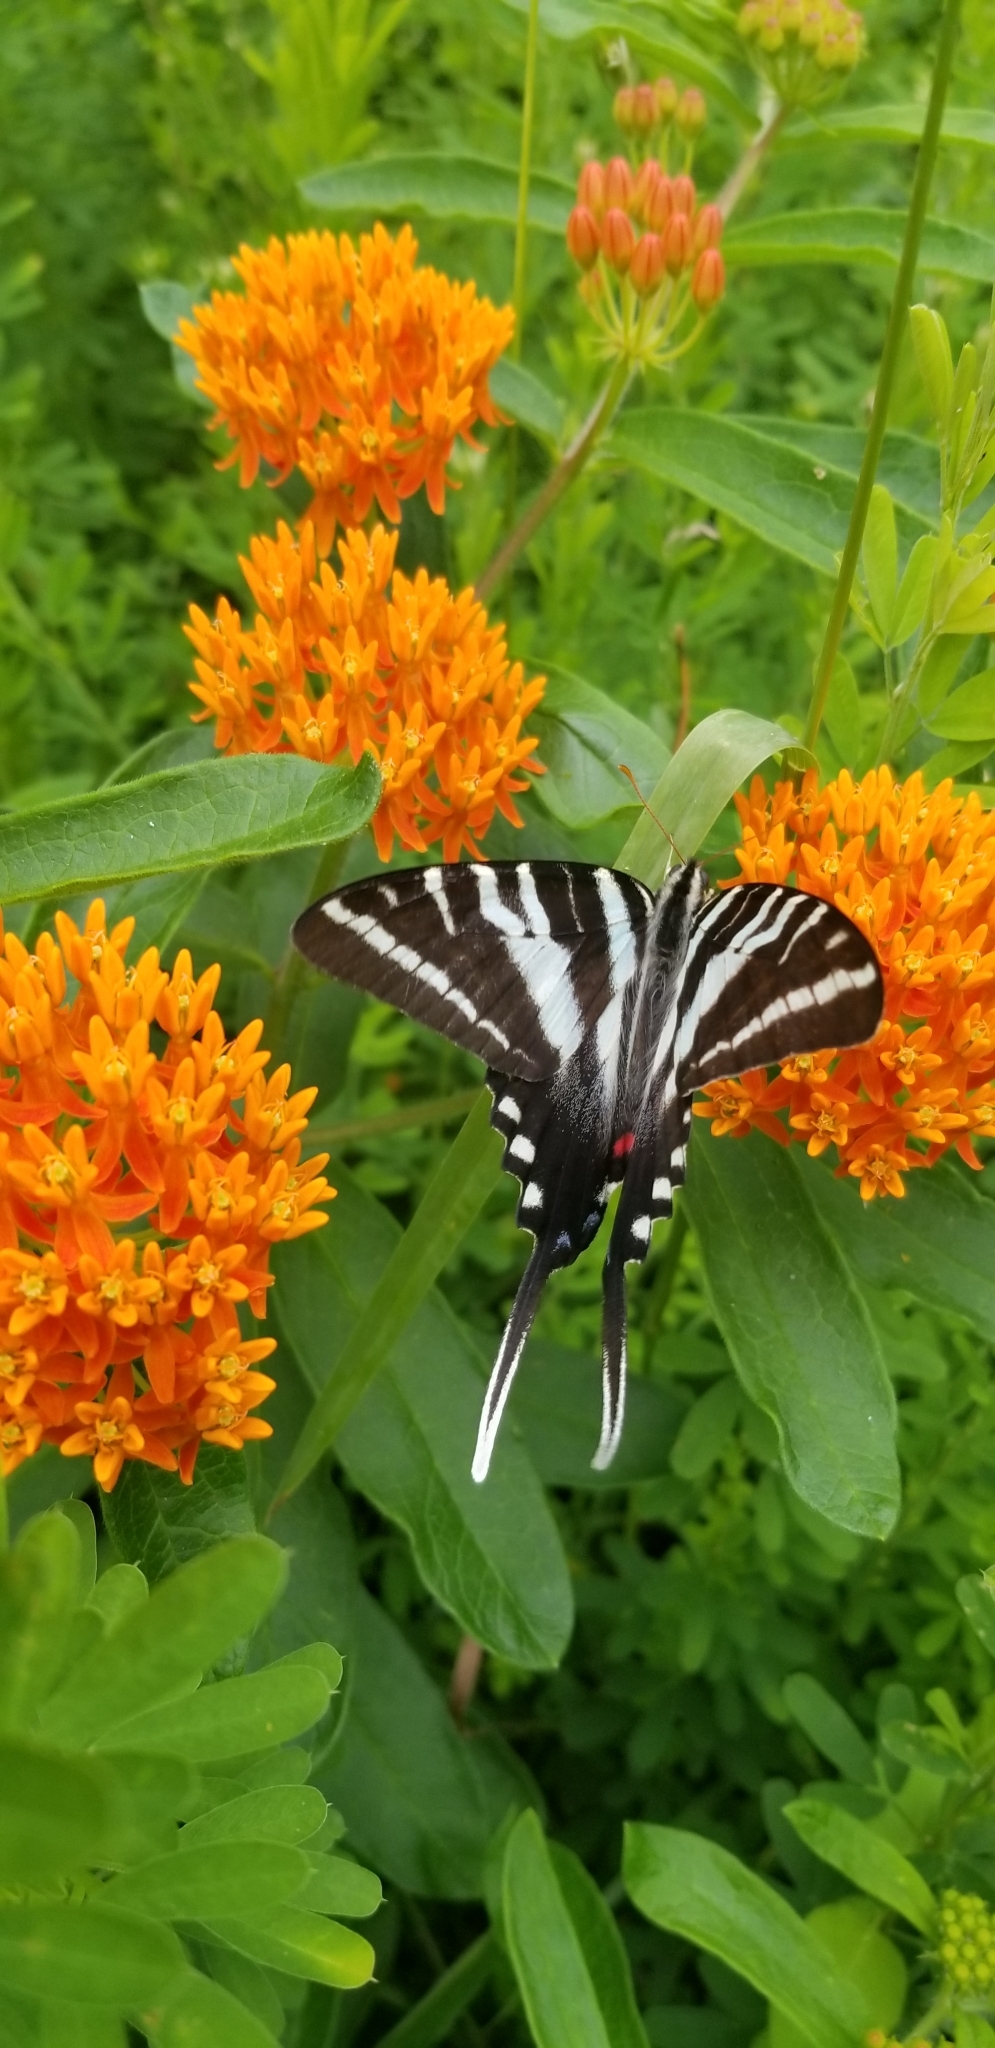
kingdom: Animalia
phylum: Arthropoda
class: Insecta
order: Lepidoptera
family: Papilionidae
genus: Protographium
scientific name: Protographium marcellus
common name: Zebra swallowtail
